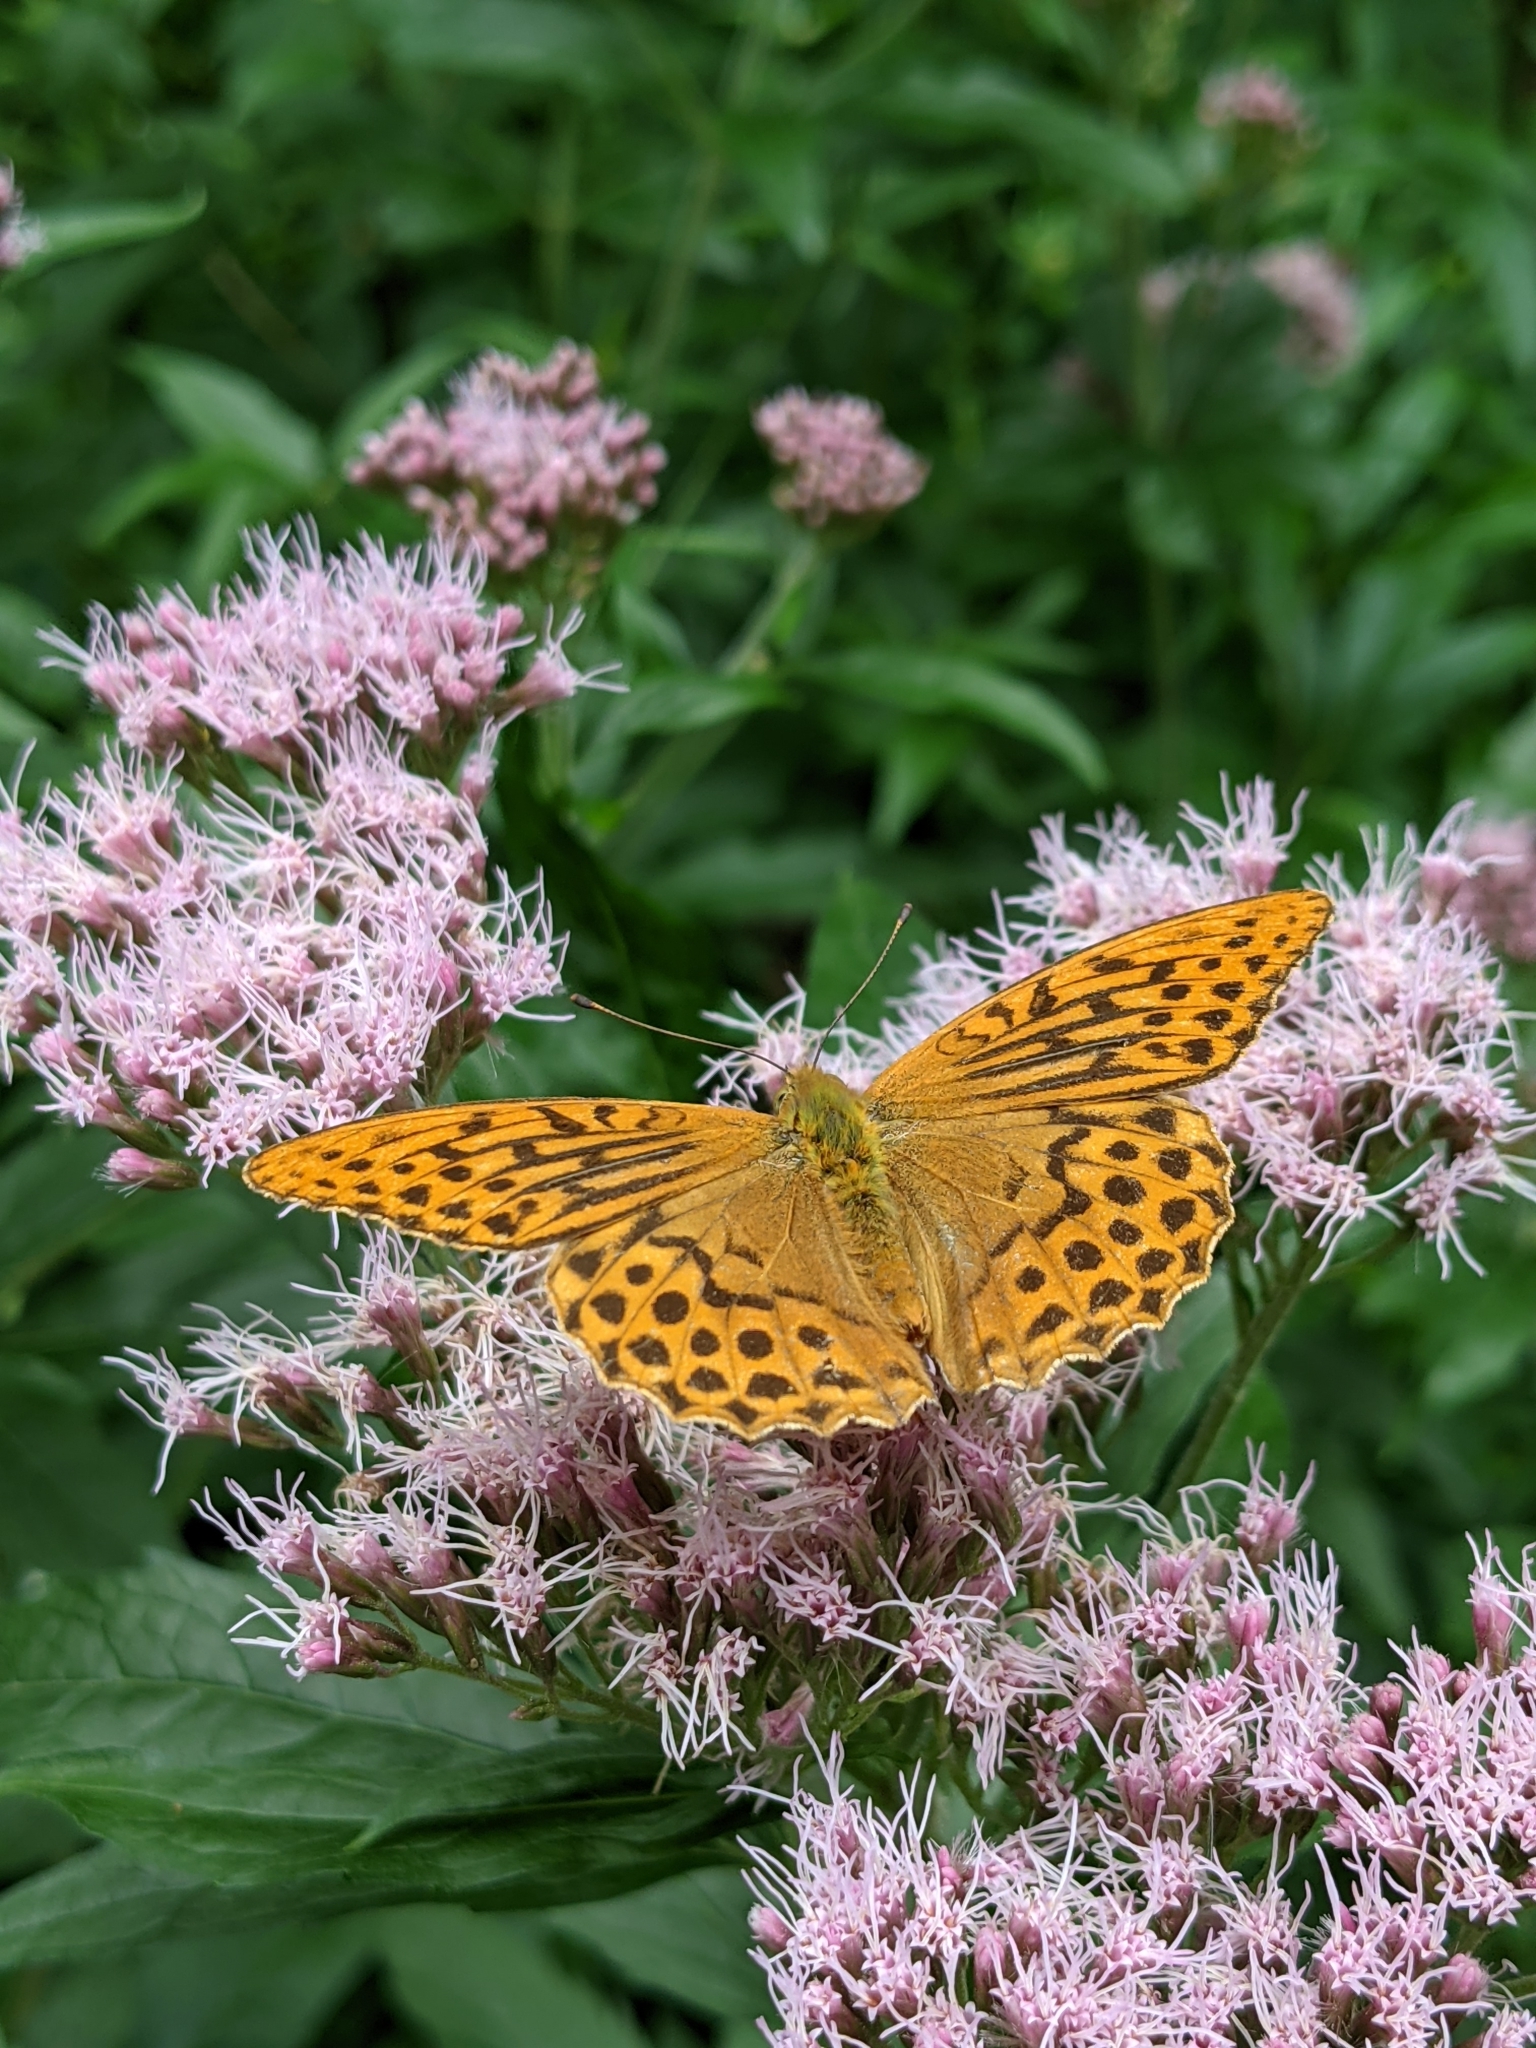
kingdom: Animalia
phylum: Arthropoda
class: Insecta
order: Lepidoptera
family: Nymphalidae
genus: Argynnis
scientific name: Argynnis paphia
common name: Silver-washed fritillary
